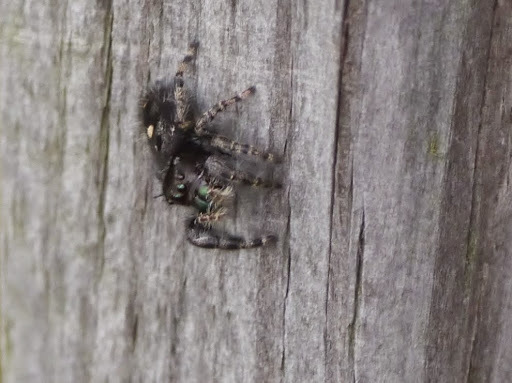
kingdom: Animalia
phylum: Arthropoda
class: Arachnida
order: Araneae
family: Salticidae
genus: Phidippus
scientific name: Phidippus audax
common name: Bold jumper
